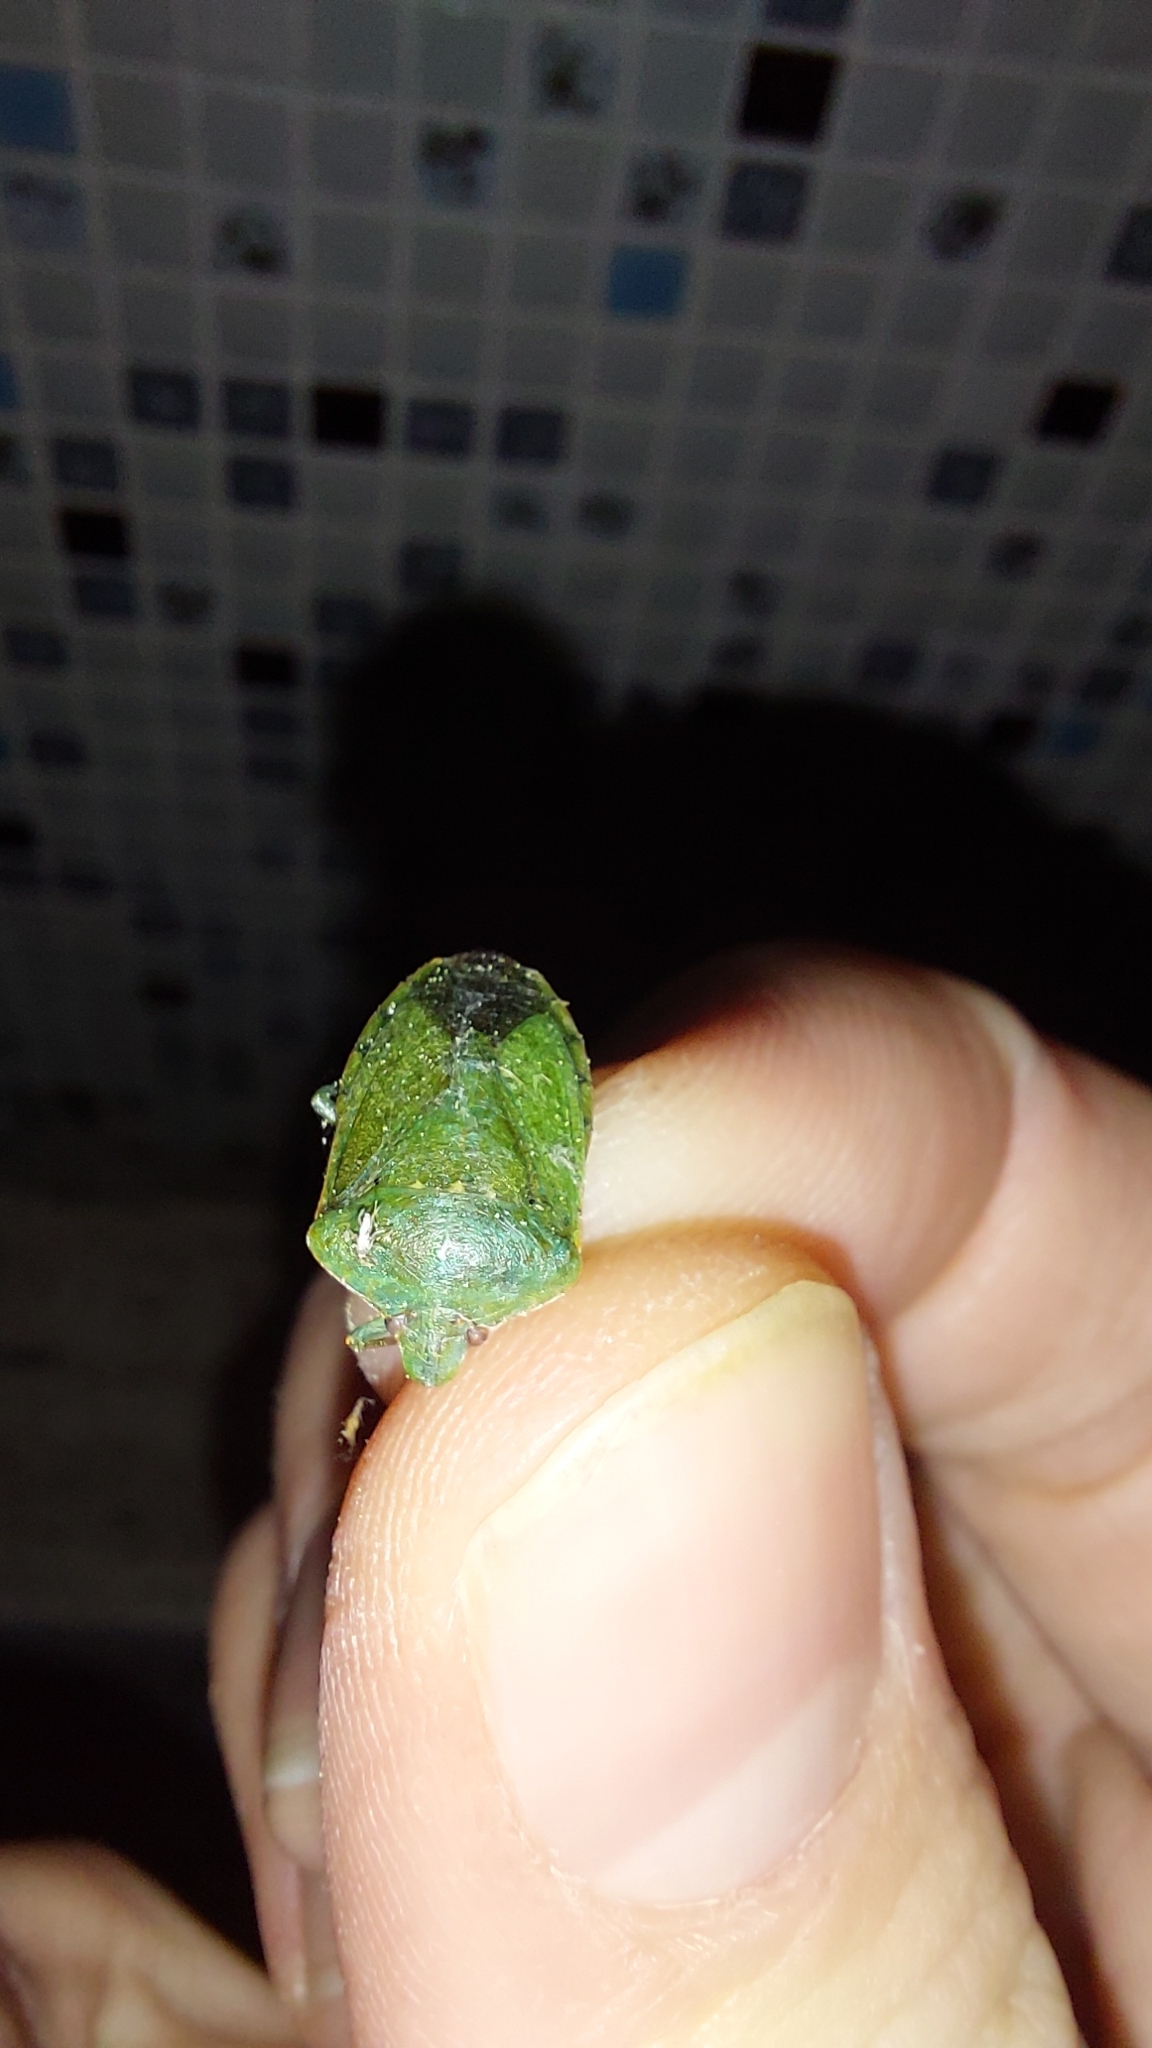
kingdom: Animalia
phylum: Arthropoda
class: Insecta
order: Hemiptera
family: Pentatomidae
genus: Nezara
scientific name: Nezara viridula
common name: Southern green stink bug
